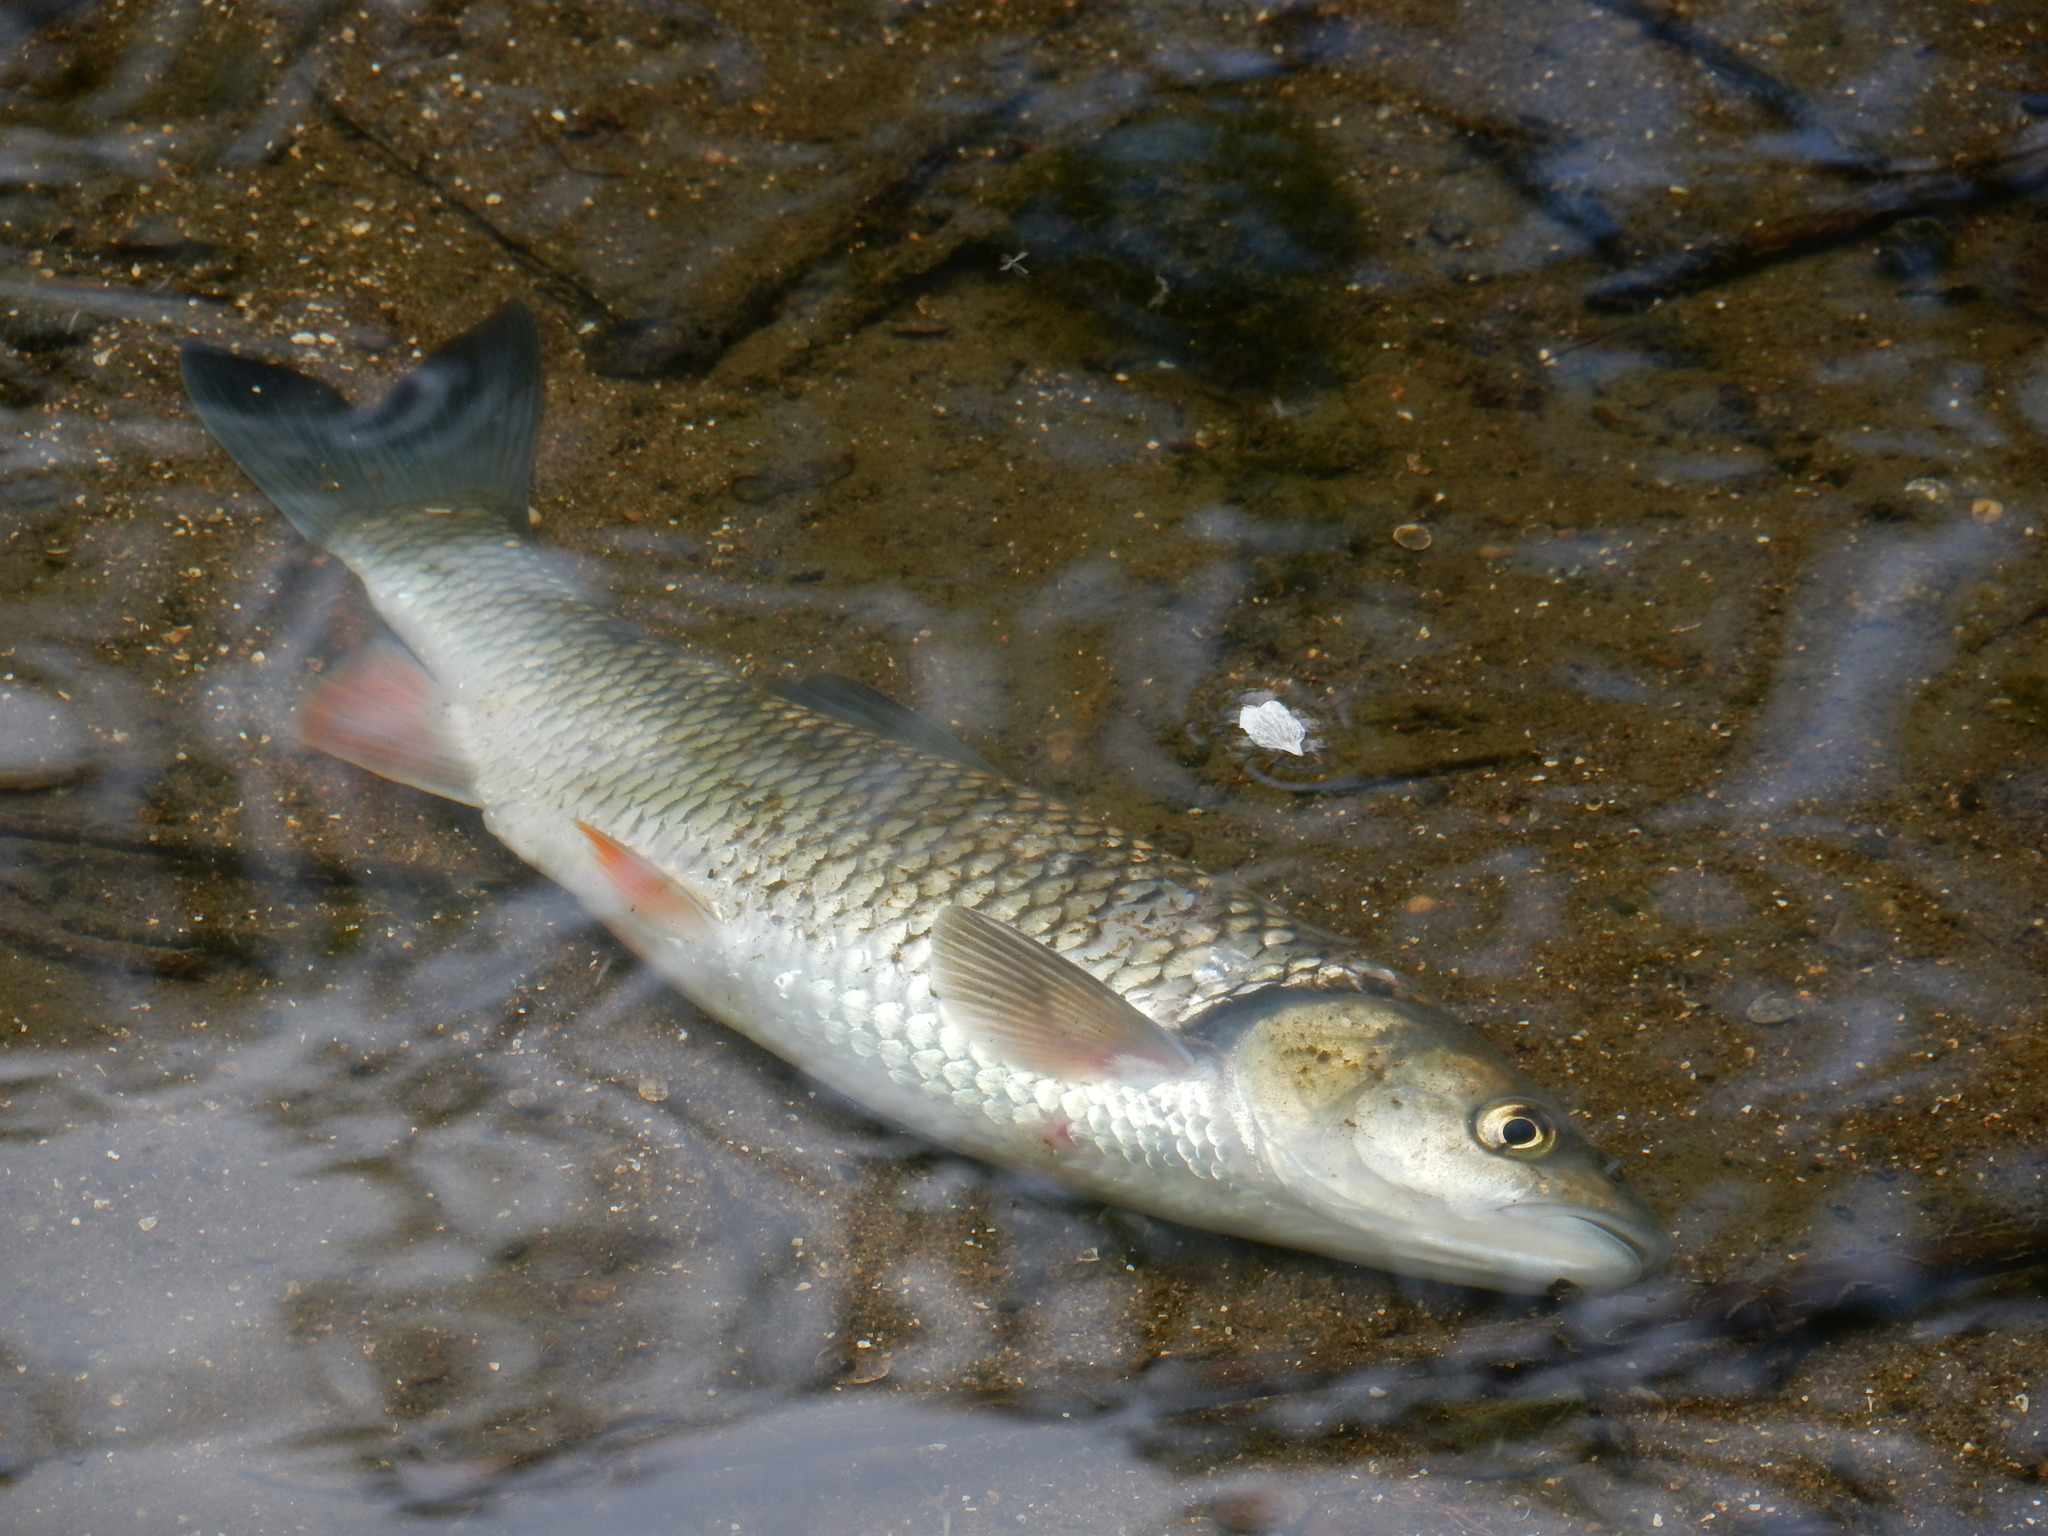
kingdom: Animalia
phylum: Chordata
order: Cypriniformes
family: Cyprinidae
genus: Squalius
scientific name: Squalius cephalus
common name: Chub
